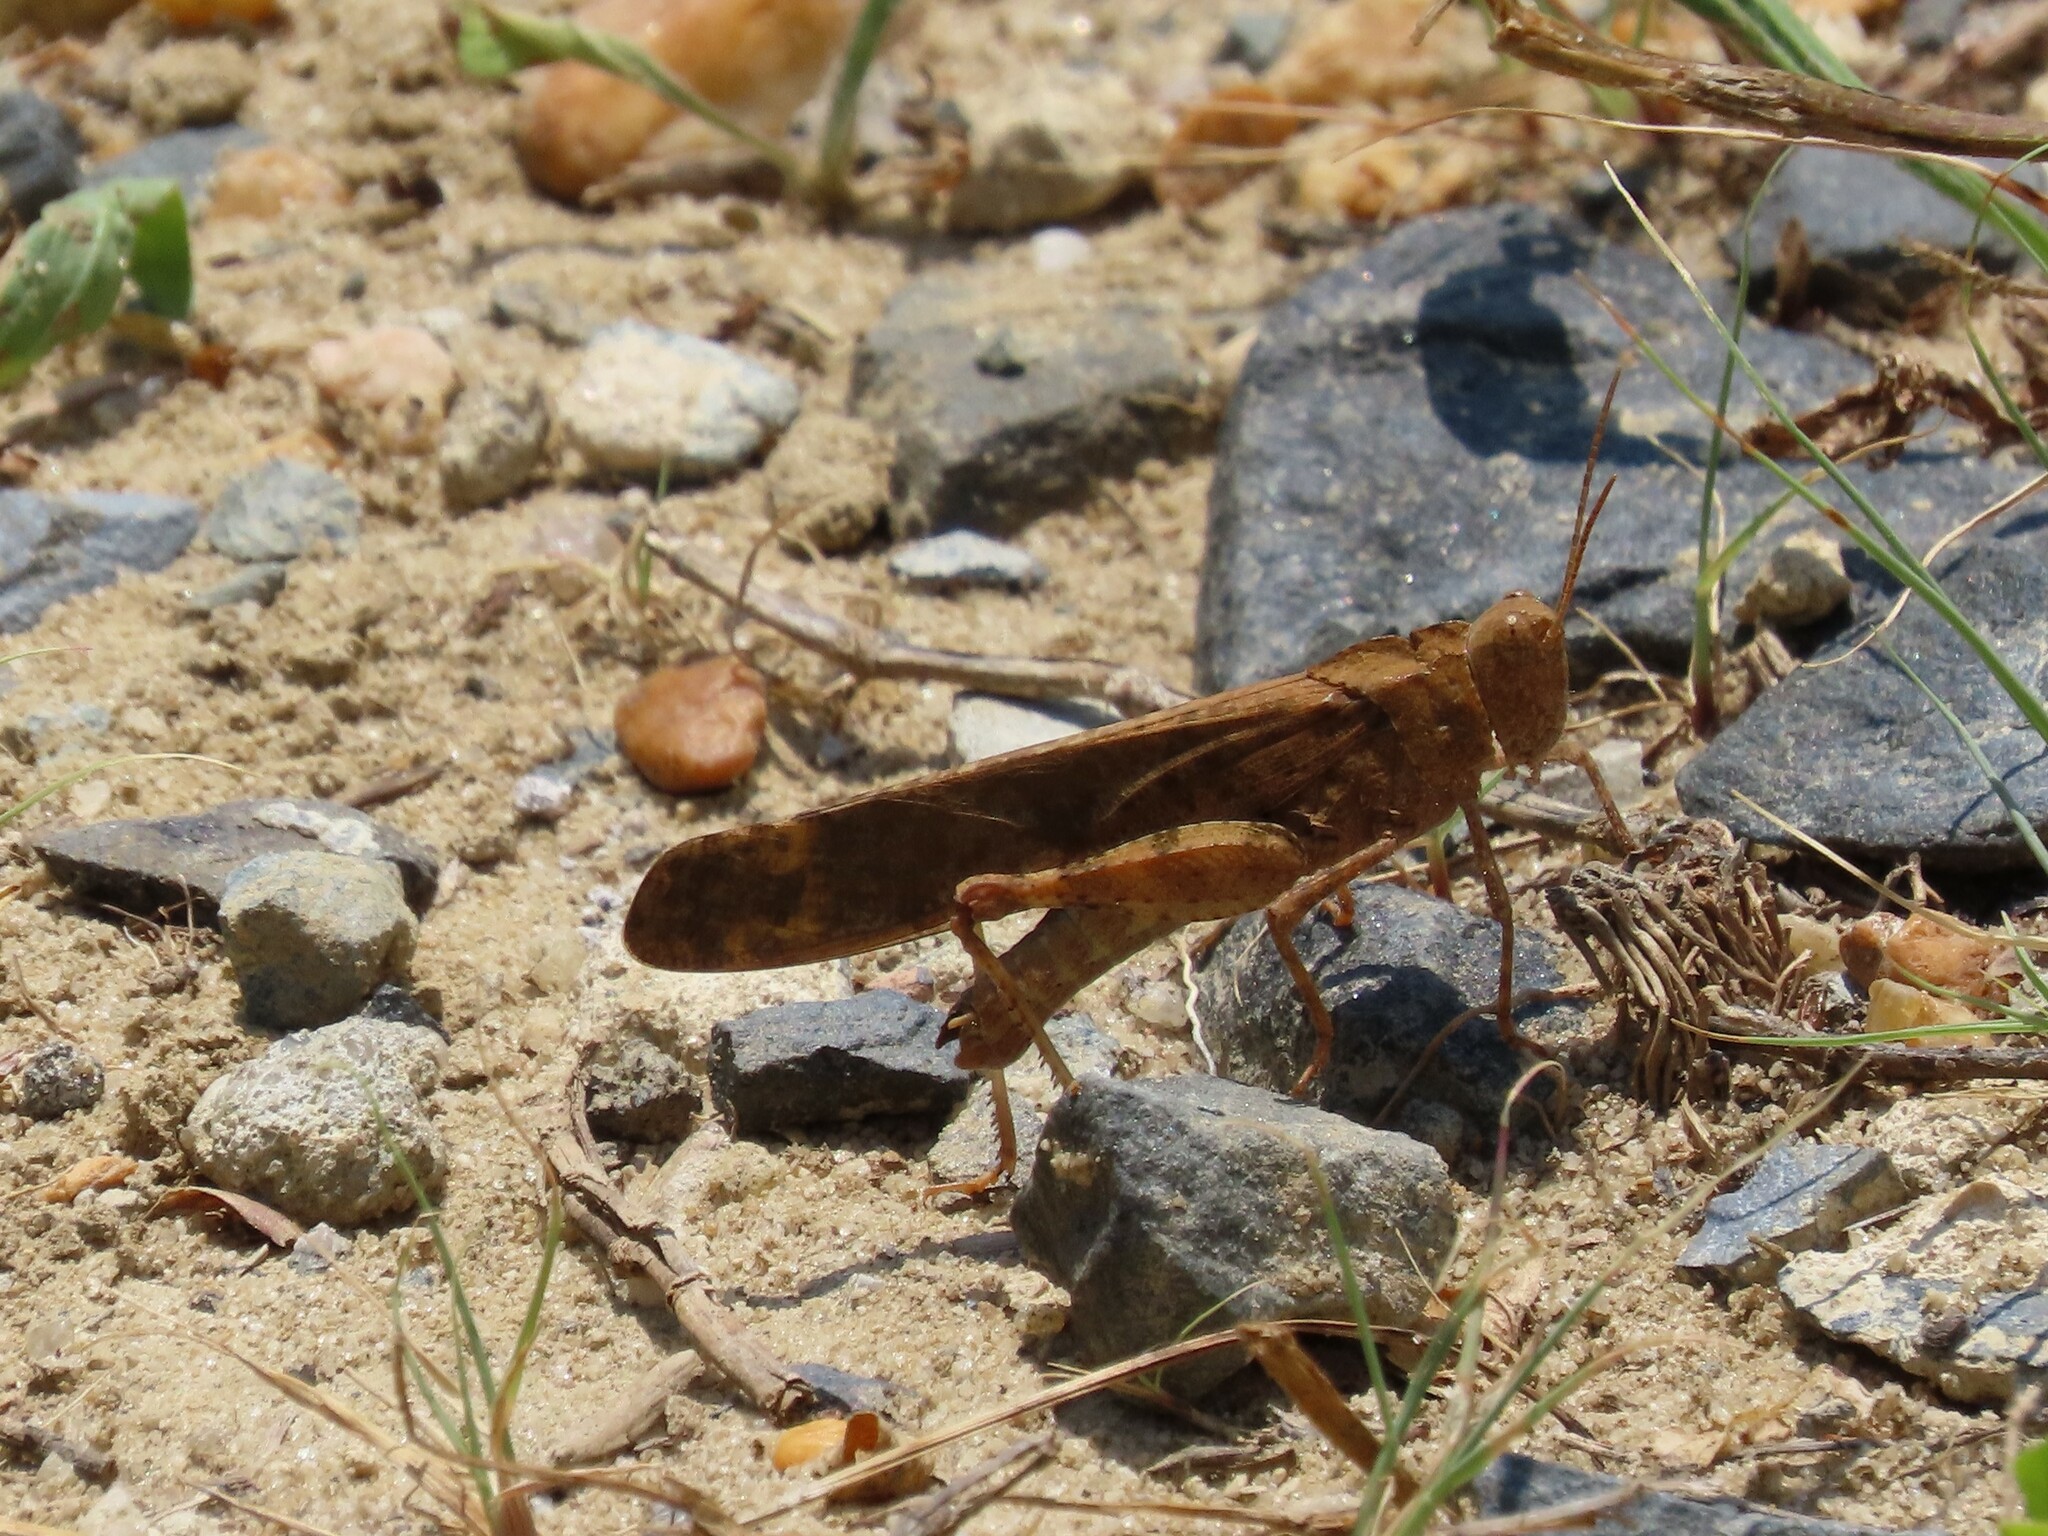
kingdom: Animalia
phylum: Arthropoda
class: Insecta
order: Orthoptera
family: Acrididae
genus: Dissosteira
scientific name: Dissosteira carolina
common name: Carolina grasshopper
